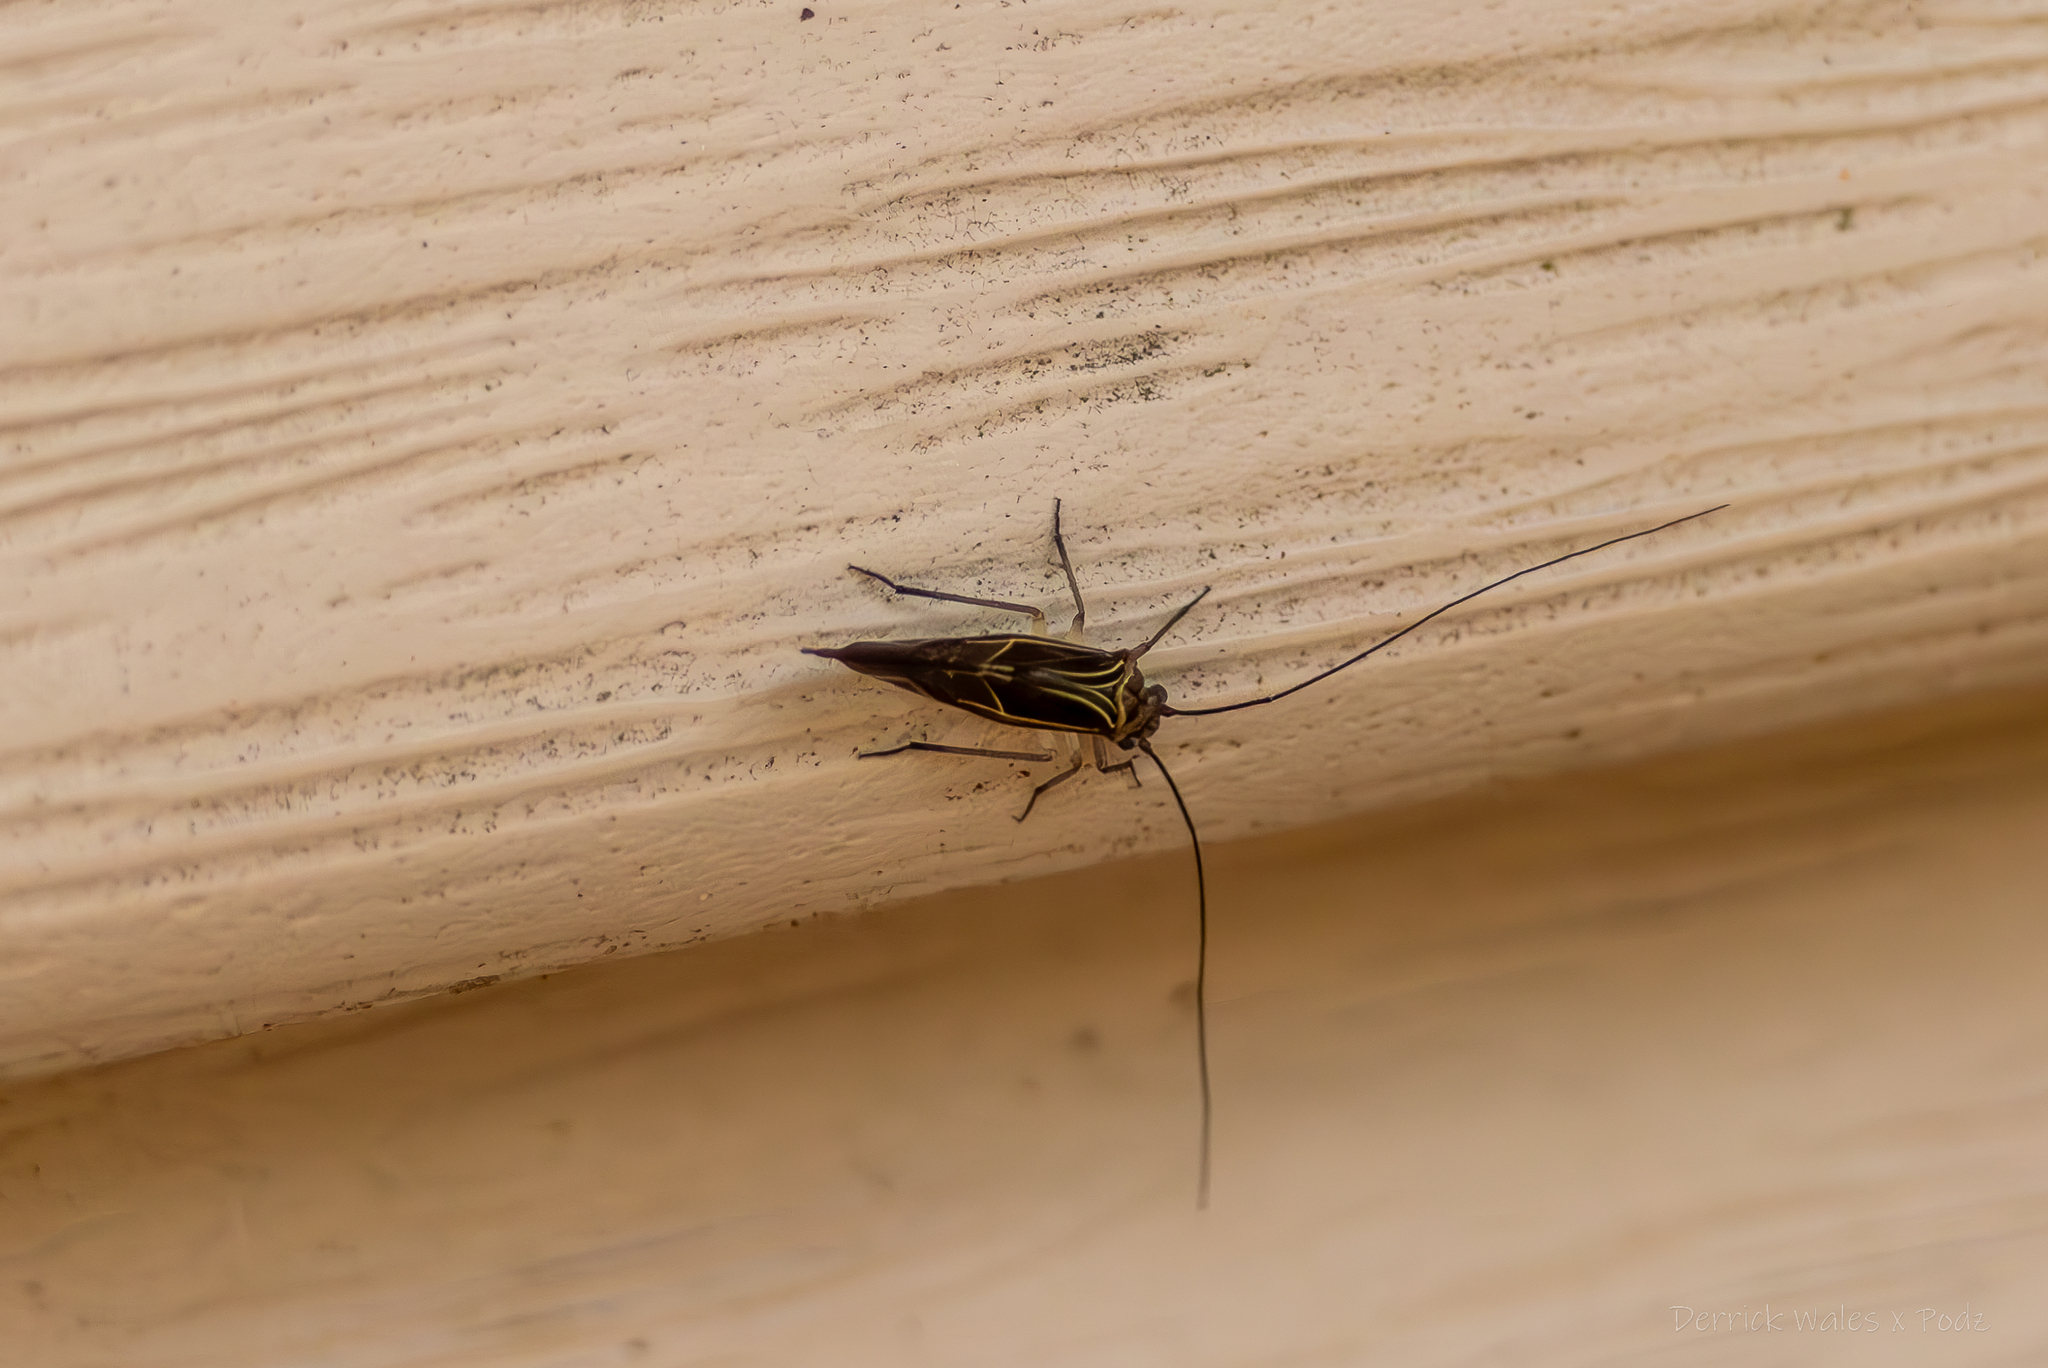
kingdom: Animalia
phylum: Arthropoda
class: Insecta
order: Psocodea
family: Psocidae
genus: Cerastipsocus
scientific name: Cerastipsocus venosus
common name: Tree cattle
